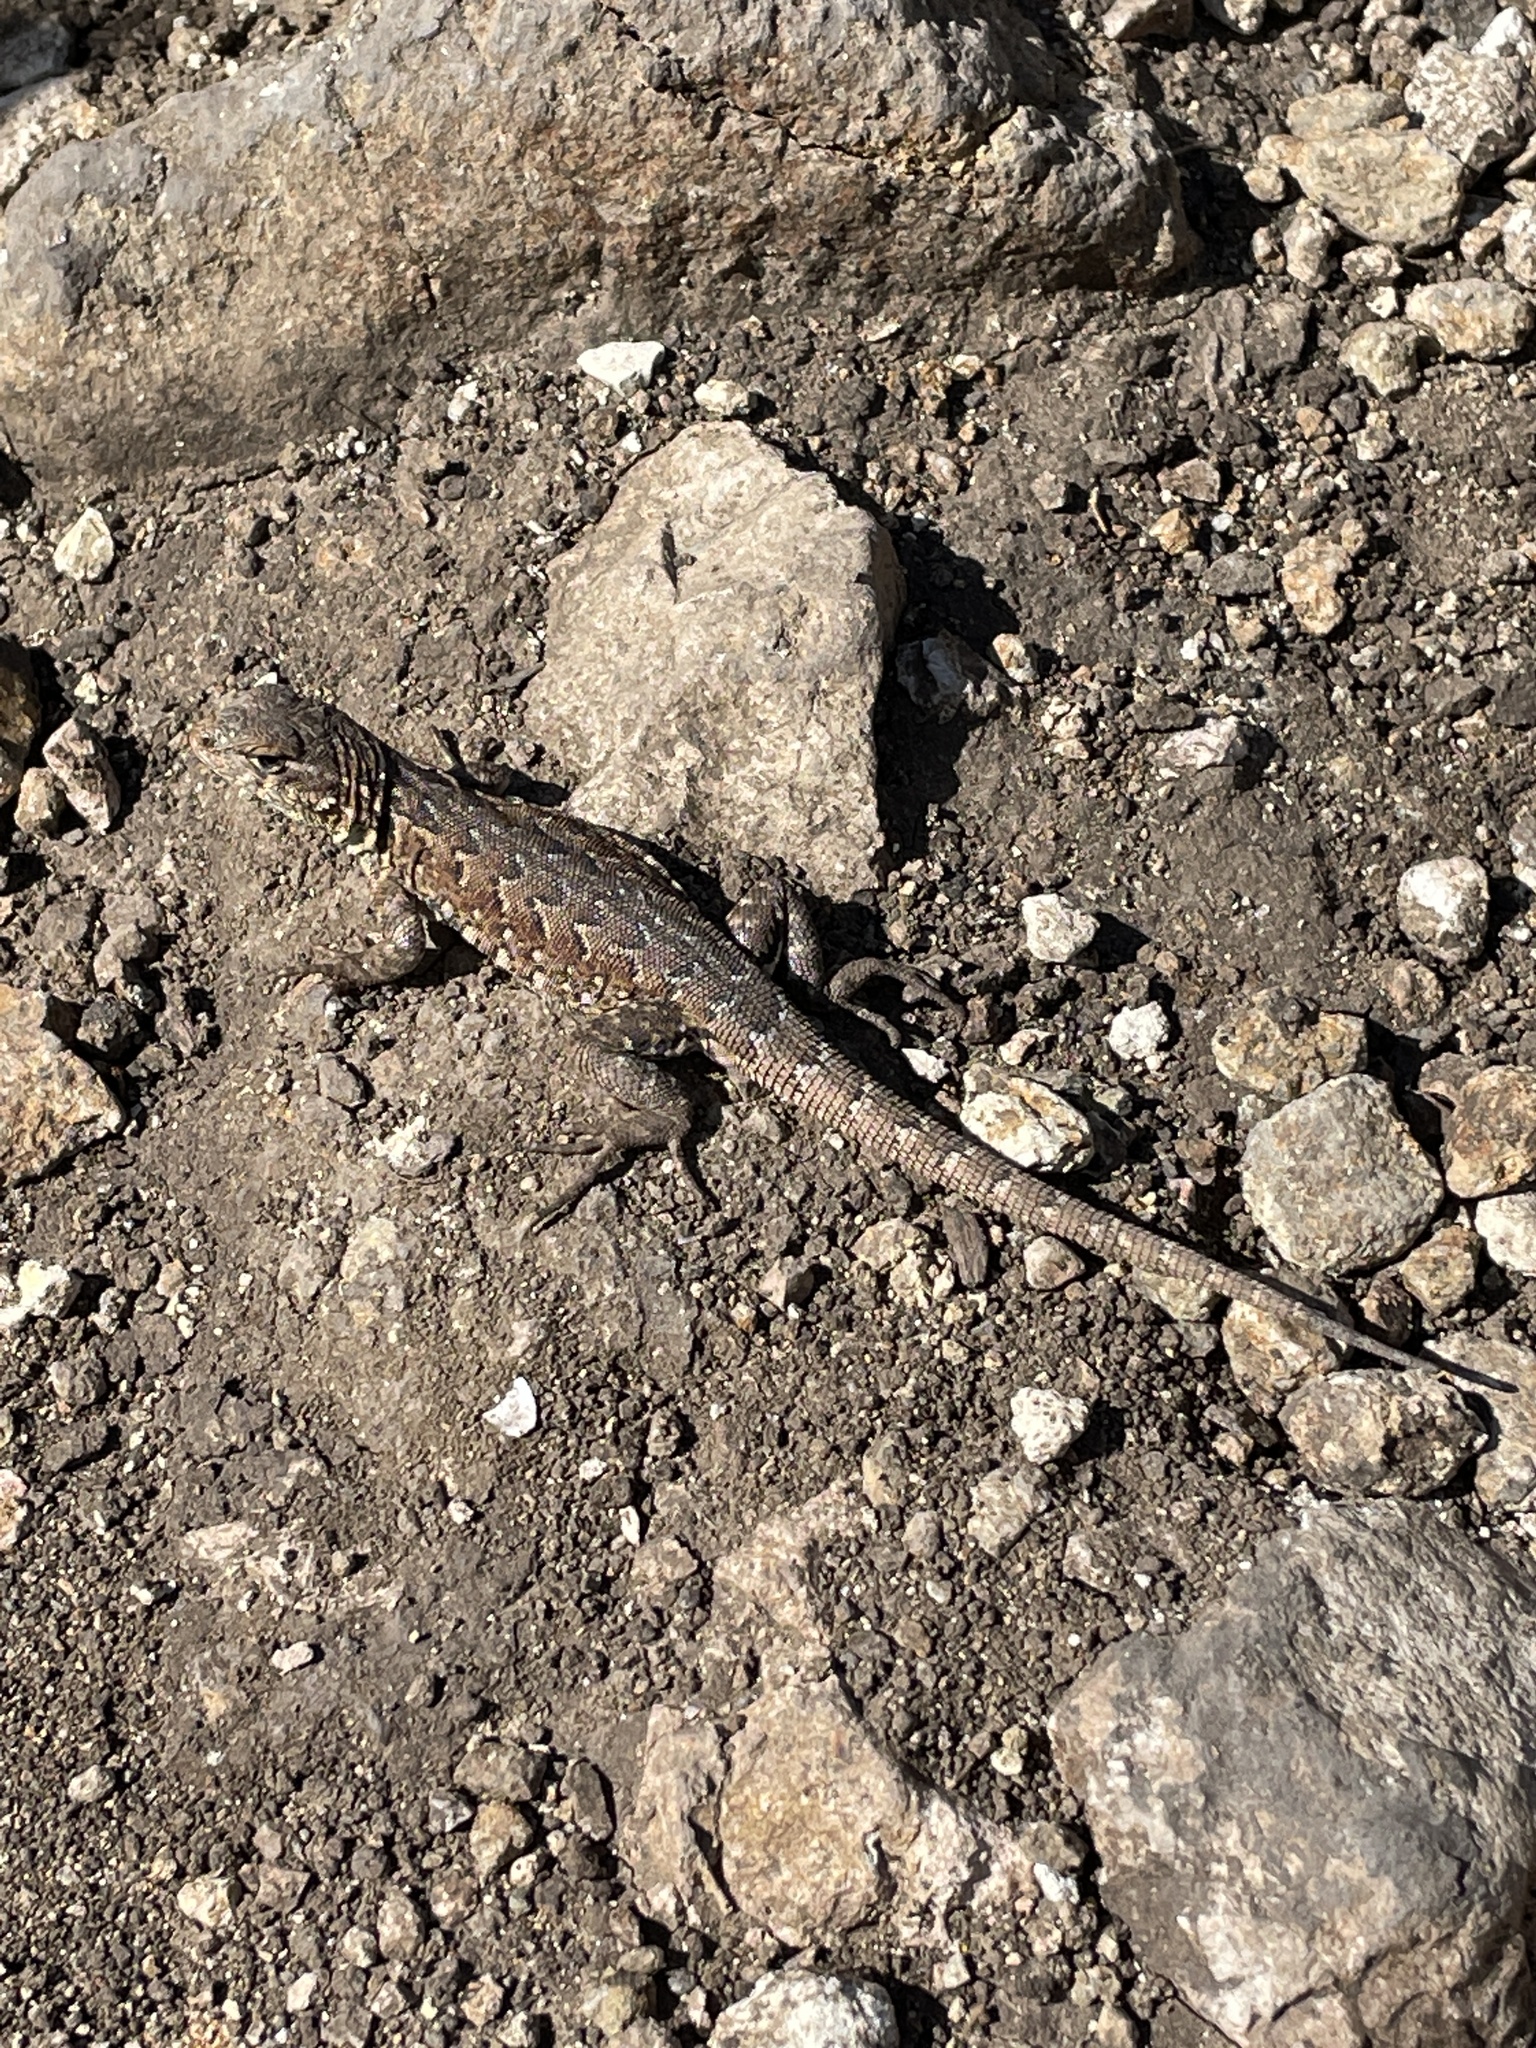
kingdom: Animalia
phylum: Chordata
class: Squamata
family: Phrynosomatidae
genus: Uta
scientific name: Uta stansburiana
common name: Side-blotched lizard
